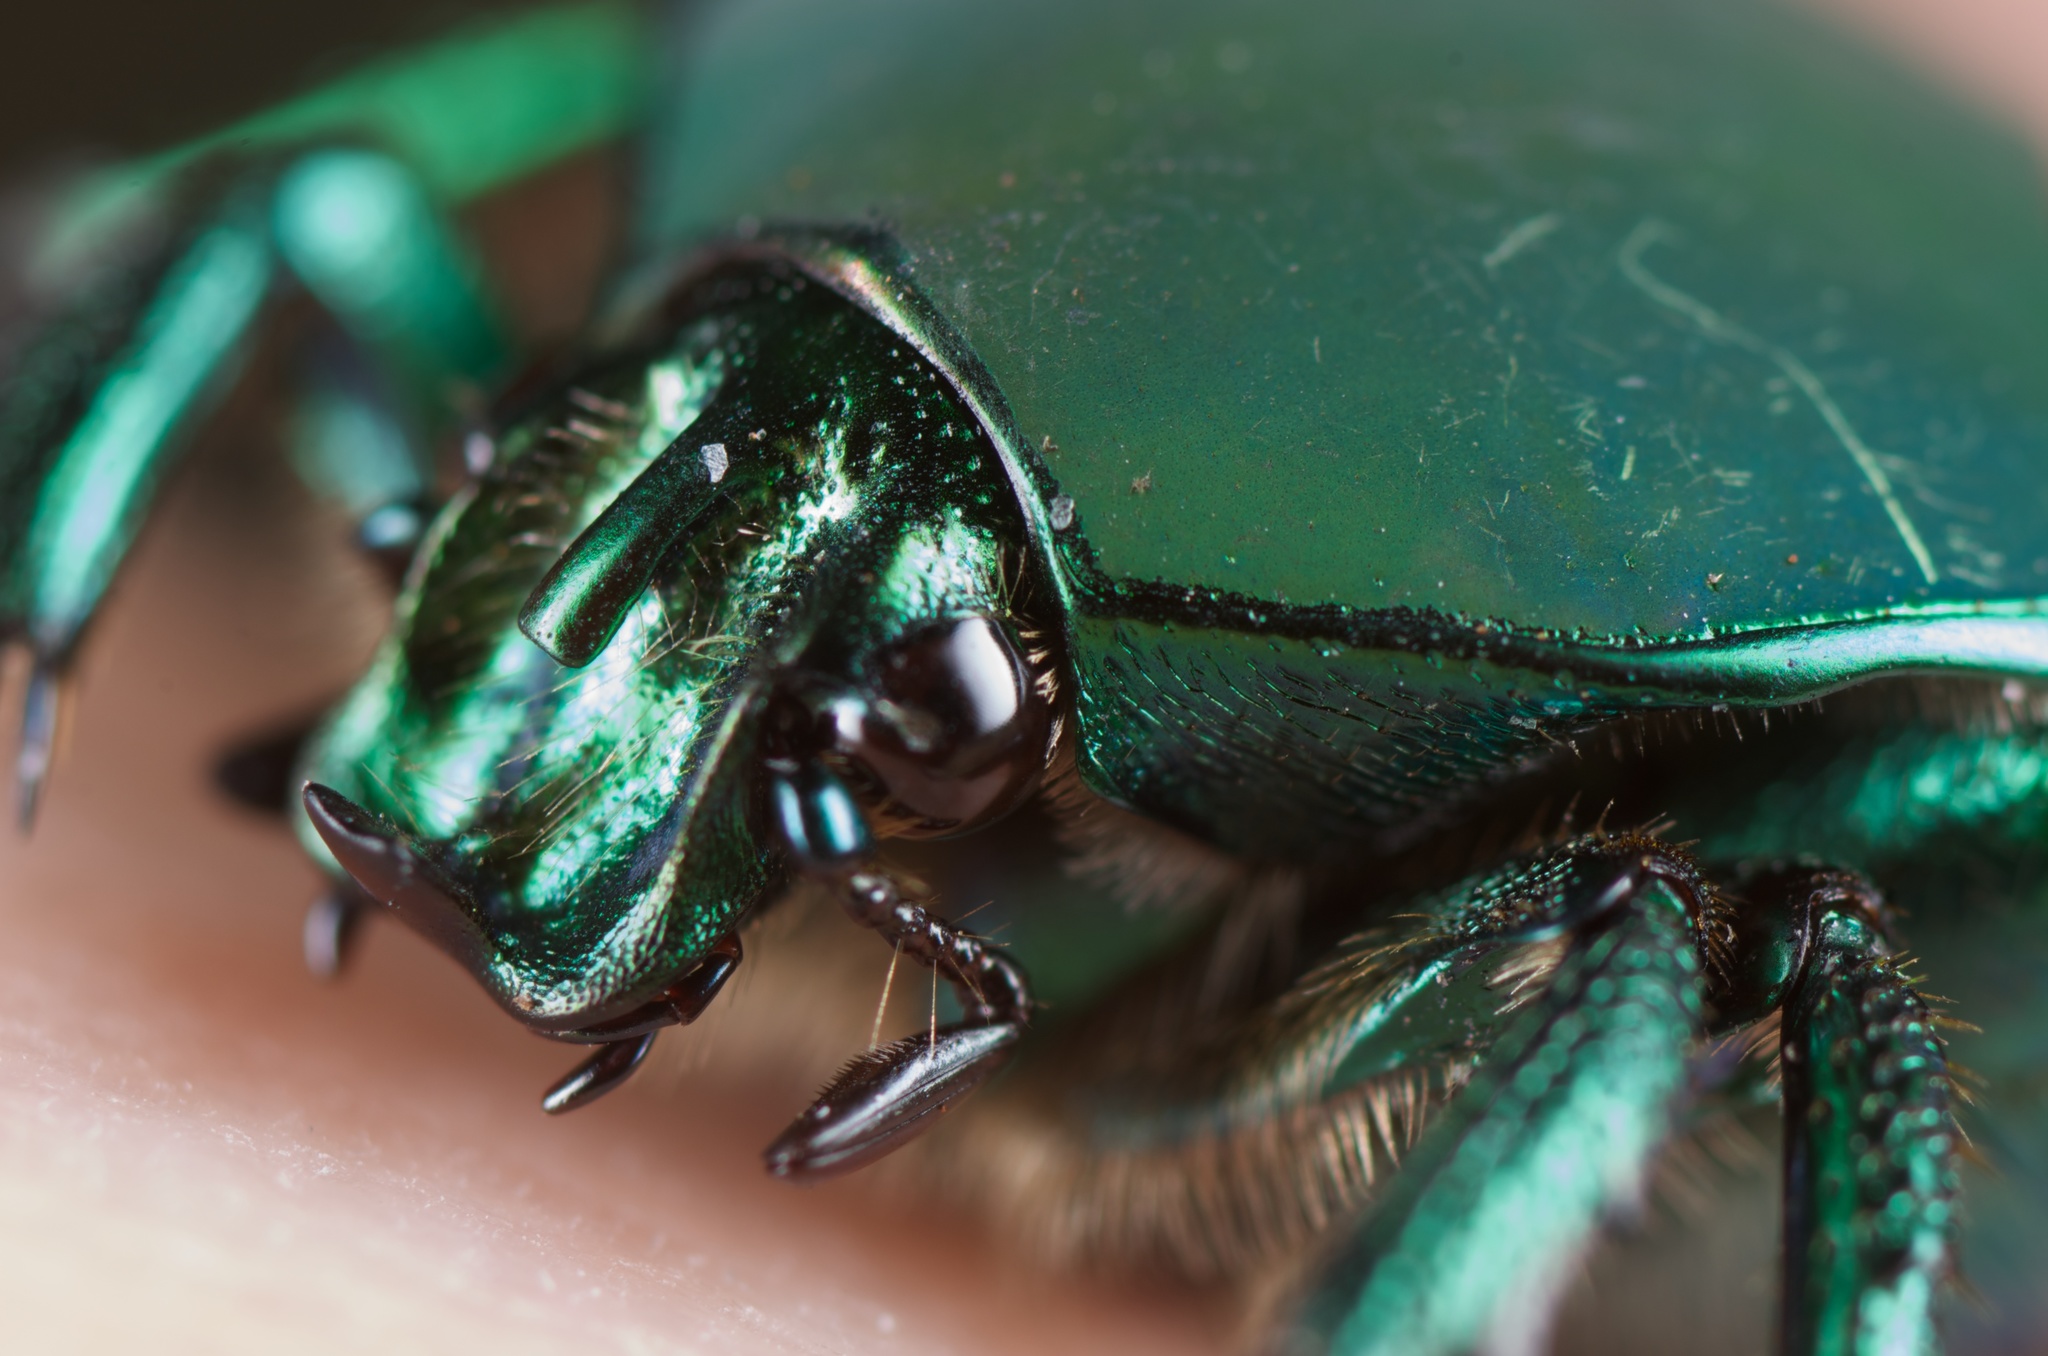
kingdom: Animalia
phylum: Arthropoda
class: Insecta
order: Coleoptera
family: Scarabaeidae
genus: Cotinis
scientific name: Cotinis mutabilis
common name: Figeater beetle
